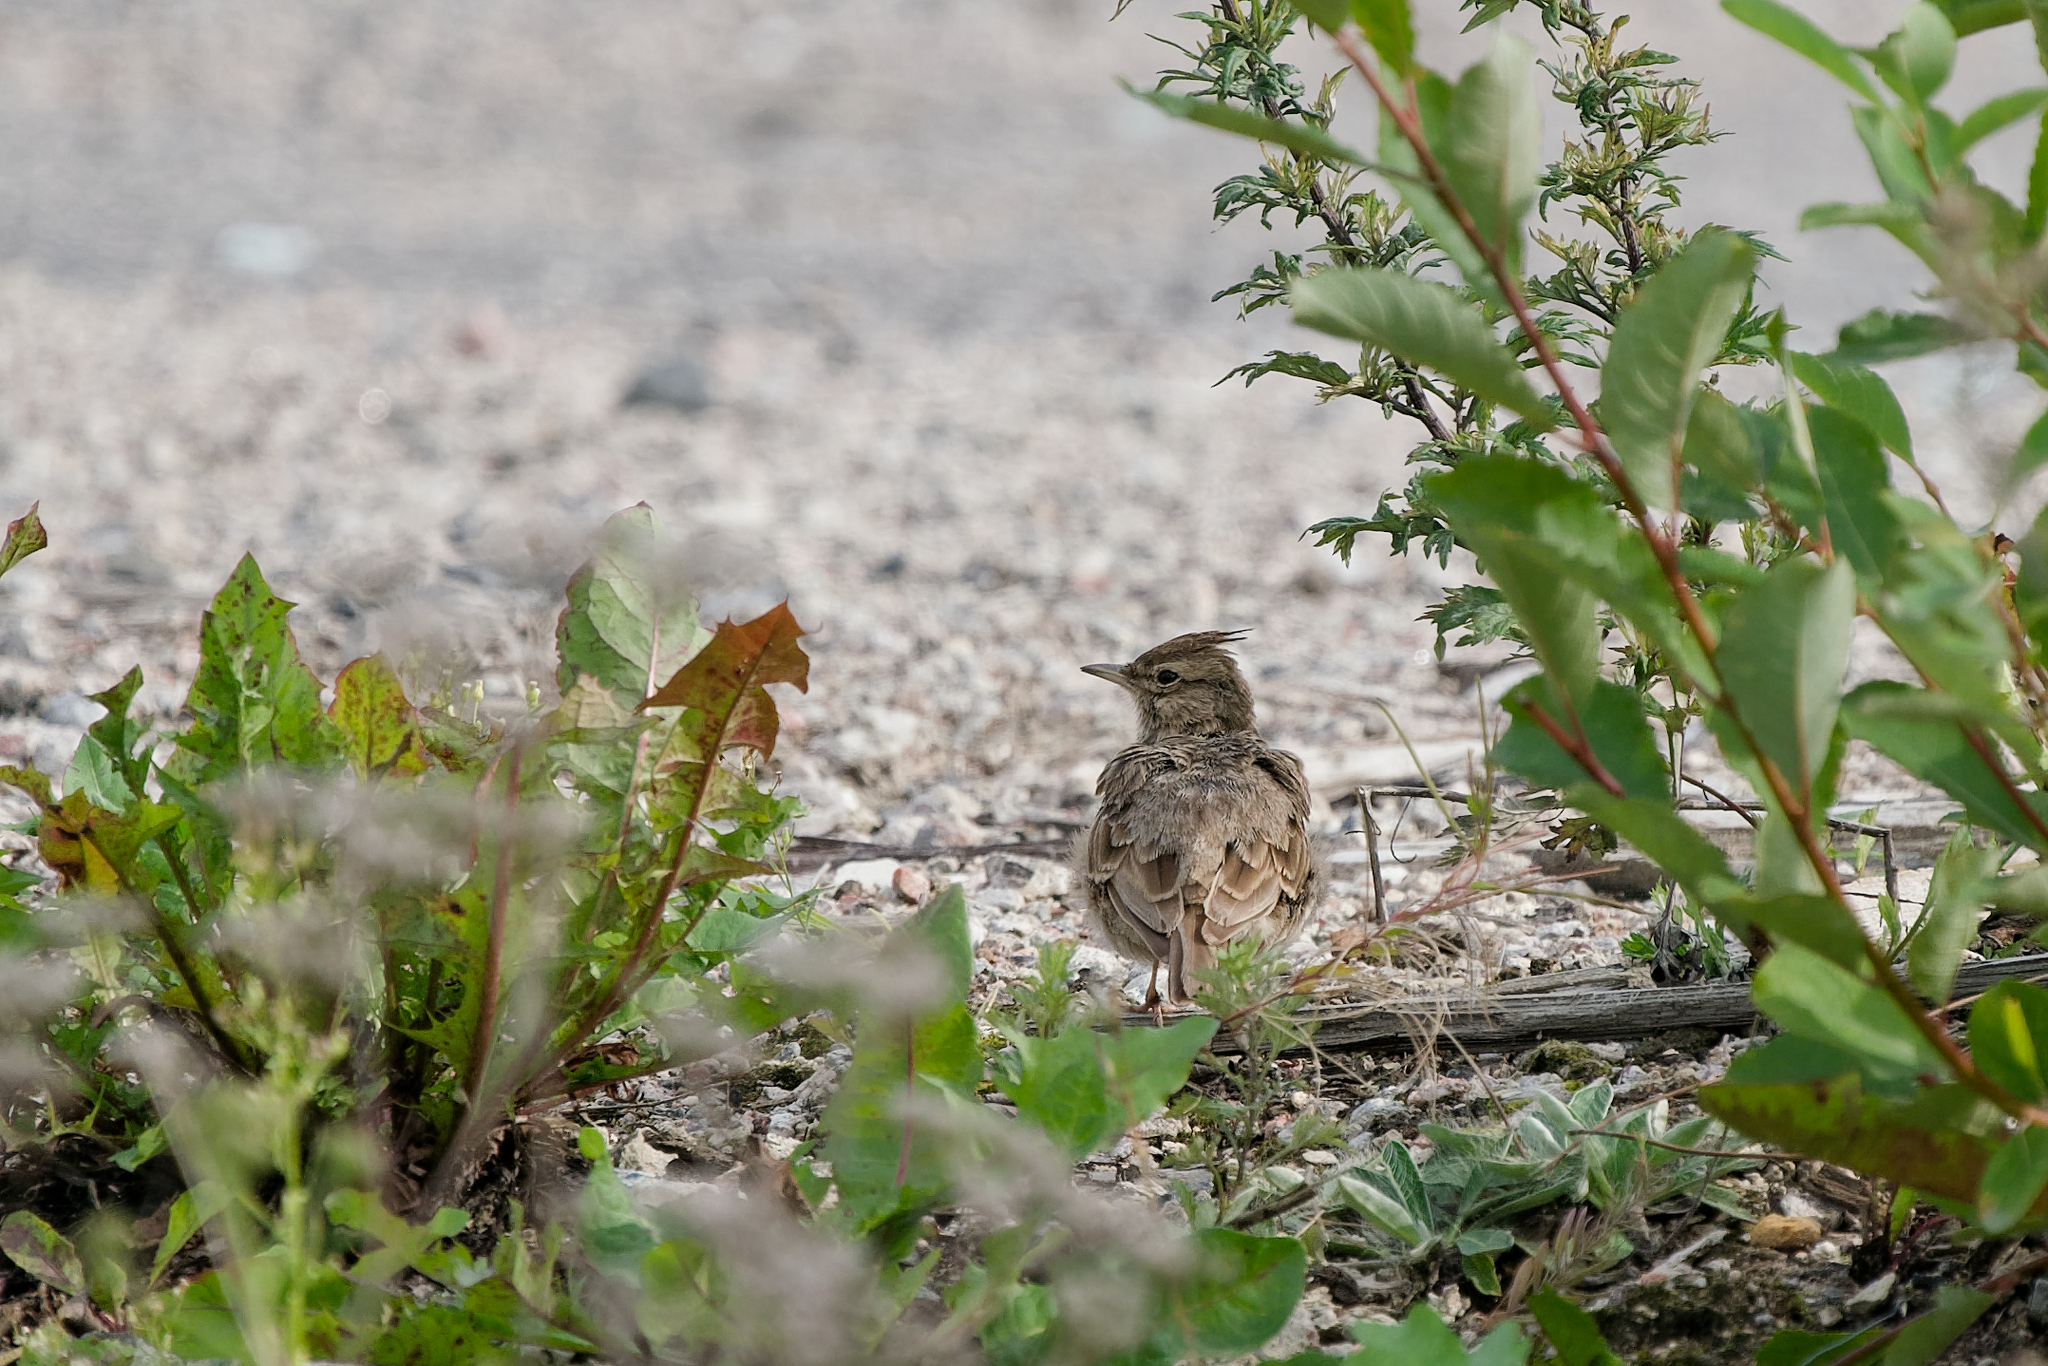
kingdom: Animalia
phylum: Chordata
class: Aves
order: Passeriformes
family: Alaudidae
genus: Galerida
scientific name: Galerida cristata
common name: Crested lark
